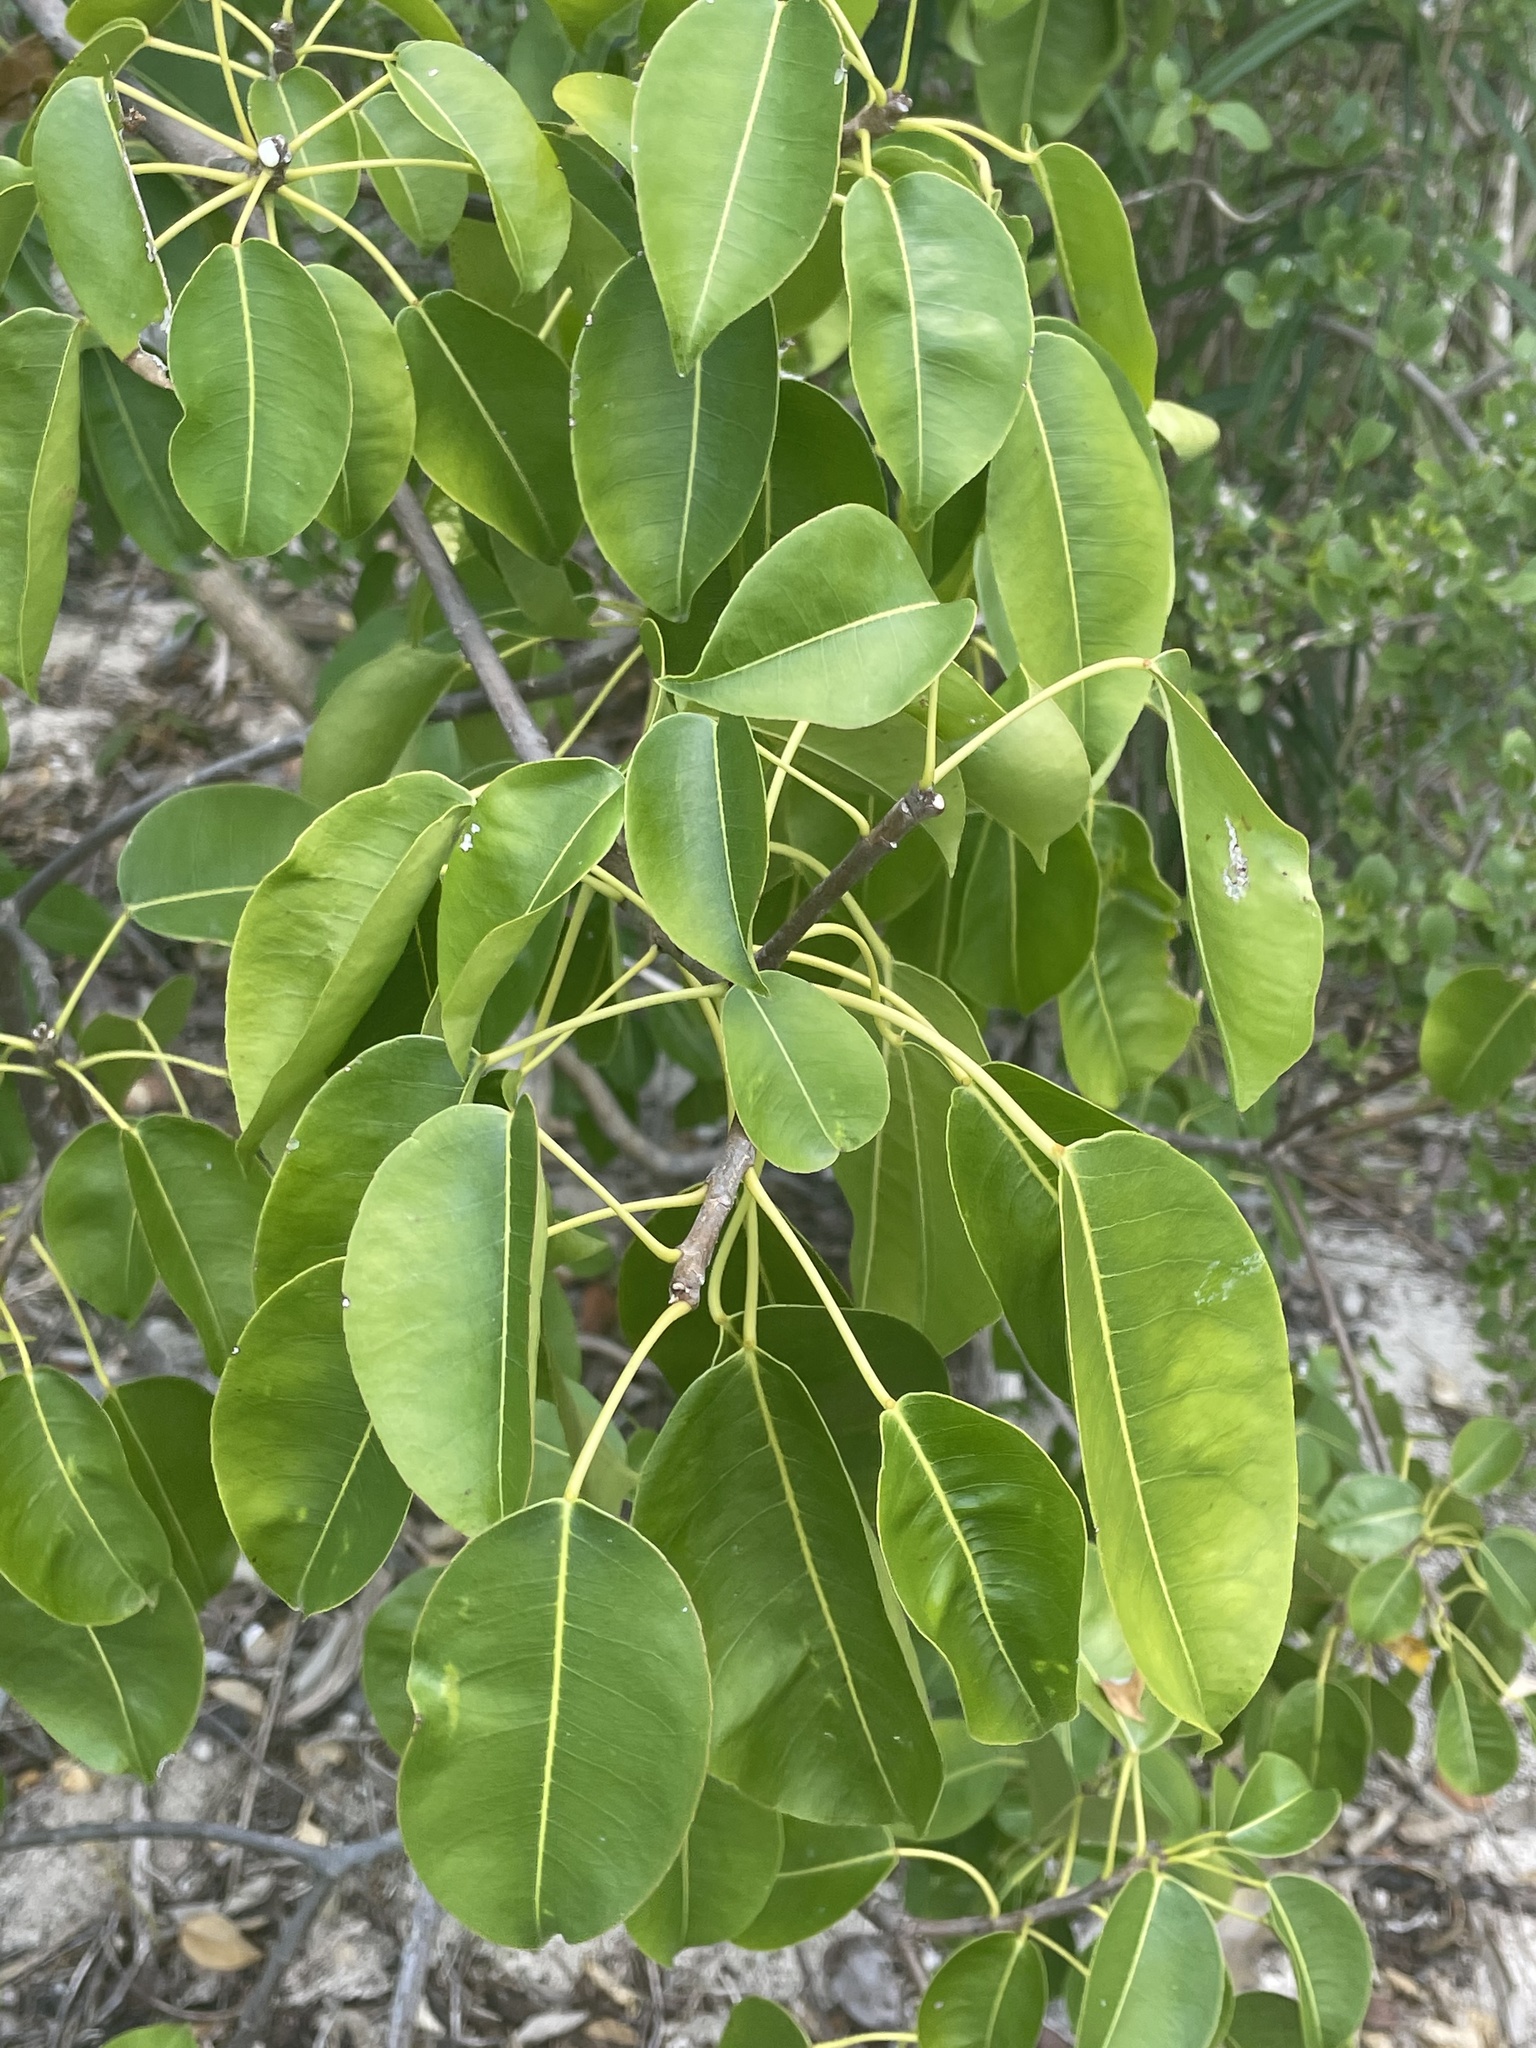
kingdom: Plantae
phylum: Tracheophyta
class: Magnoliopsida
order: Malpighiales
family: Euphorbiaceae
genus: Hippomane
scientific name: Hippomane mancinella
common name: Manchineel
